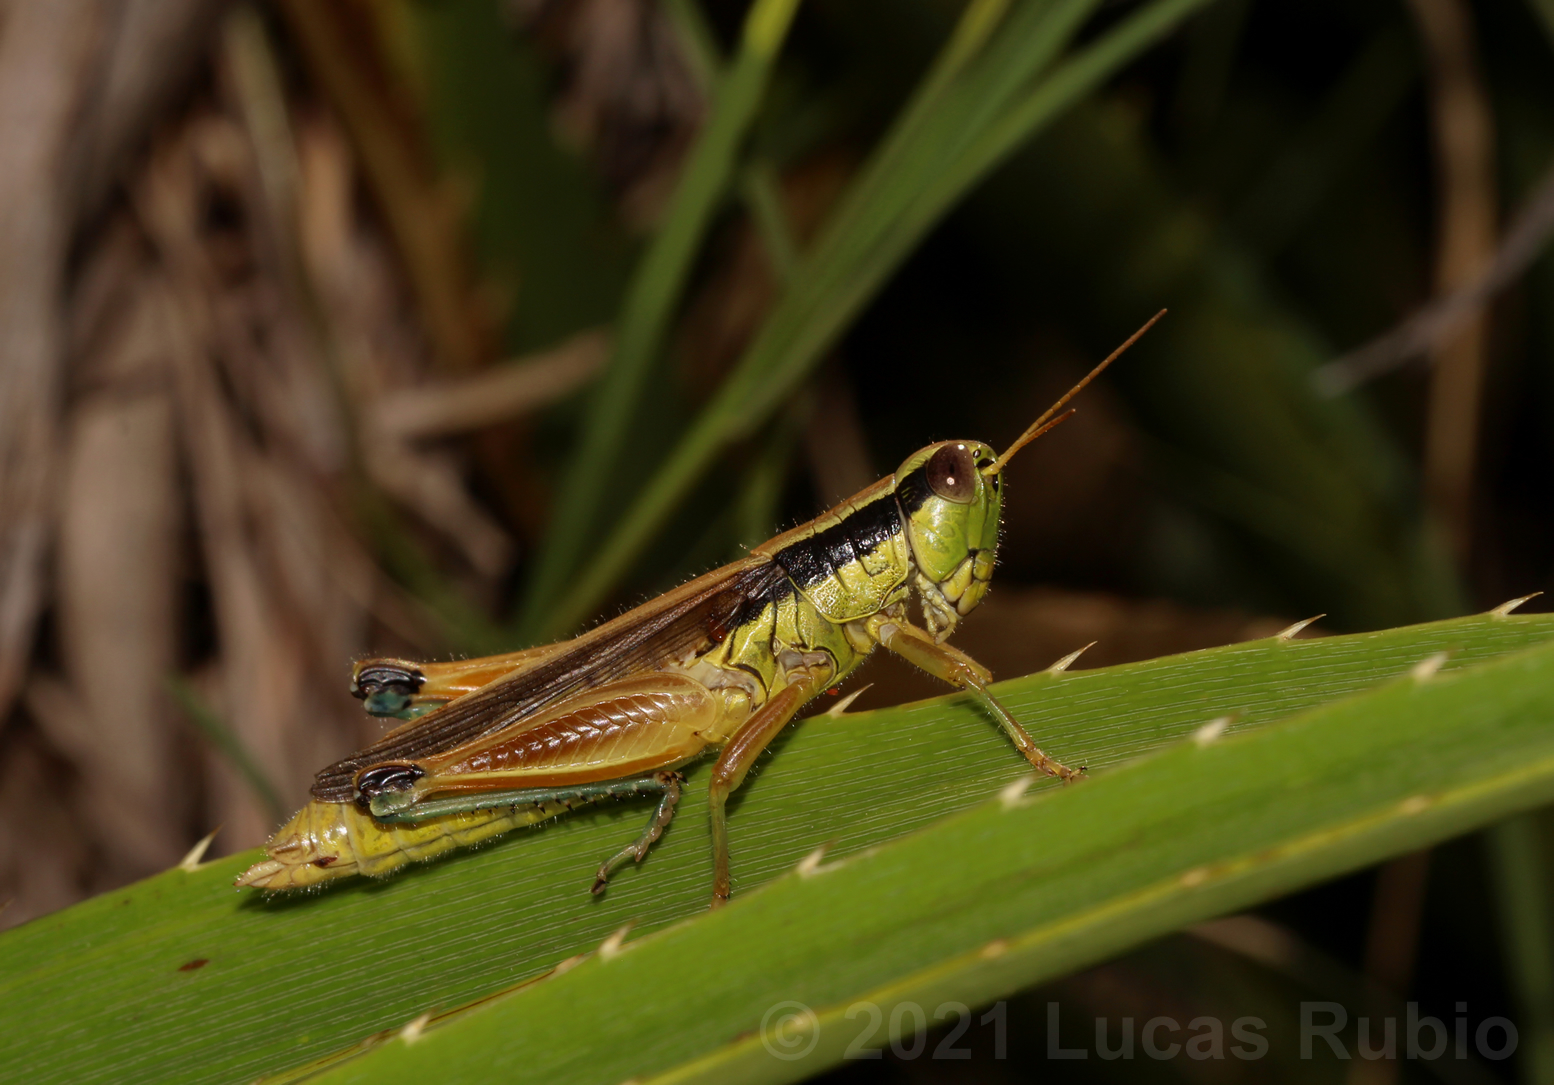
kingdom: Animalia
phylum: Arthropoda
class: Insecta
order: Orthoptera
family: Acrididae
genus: Scotussa
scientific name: Scotussa impudica
